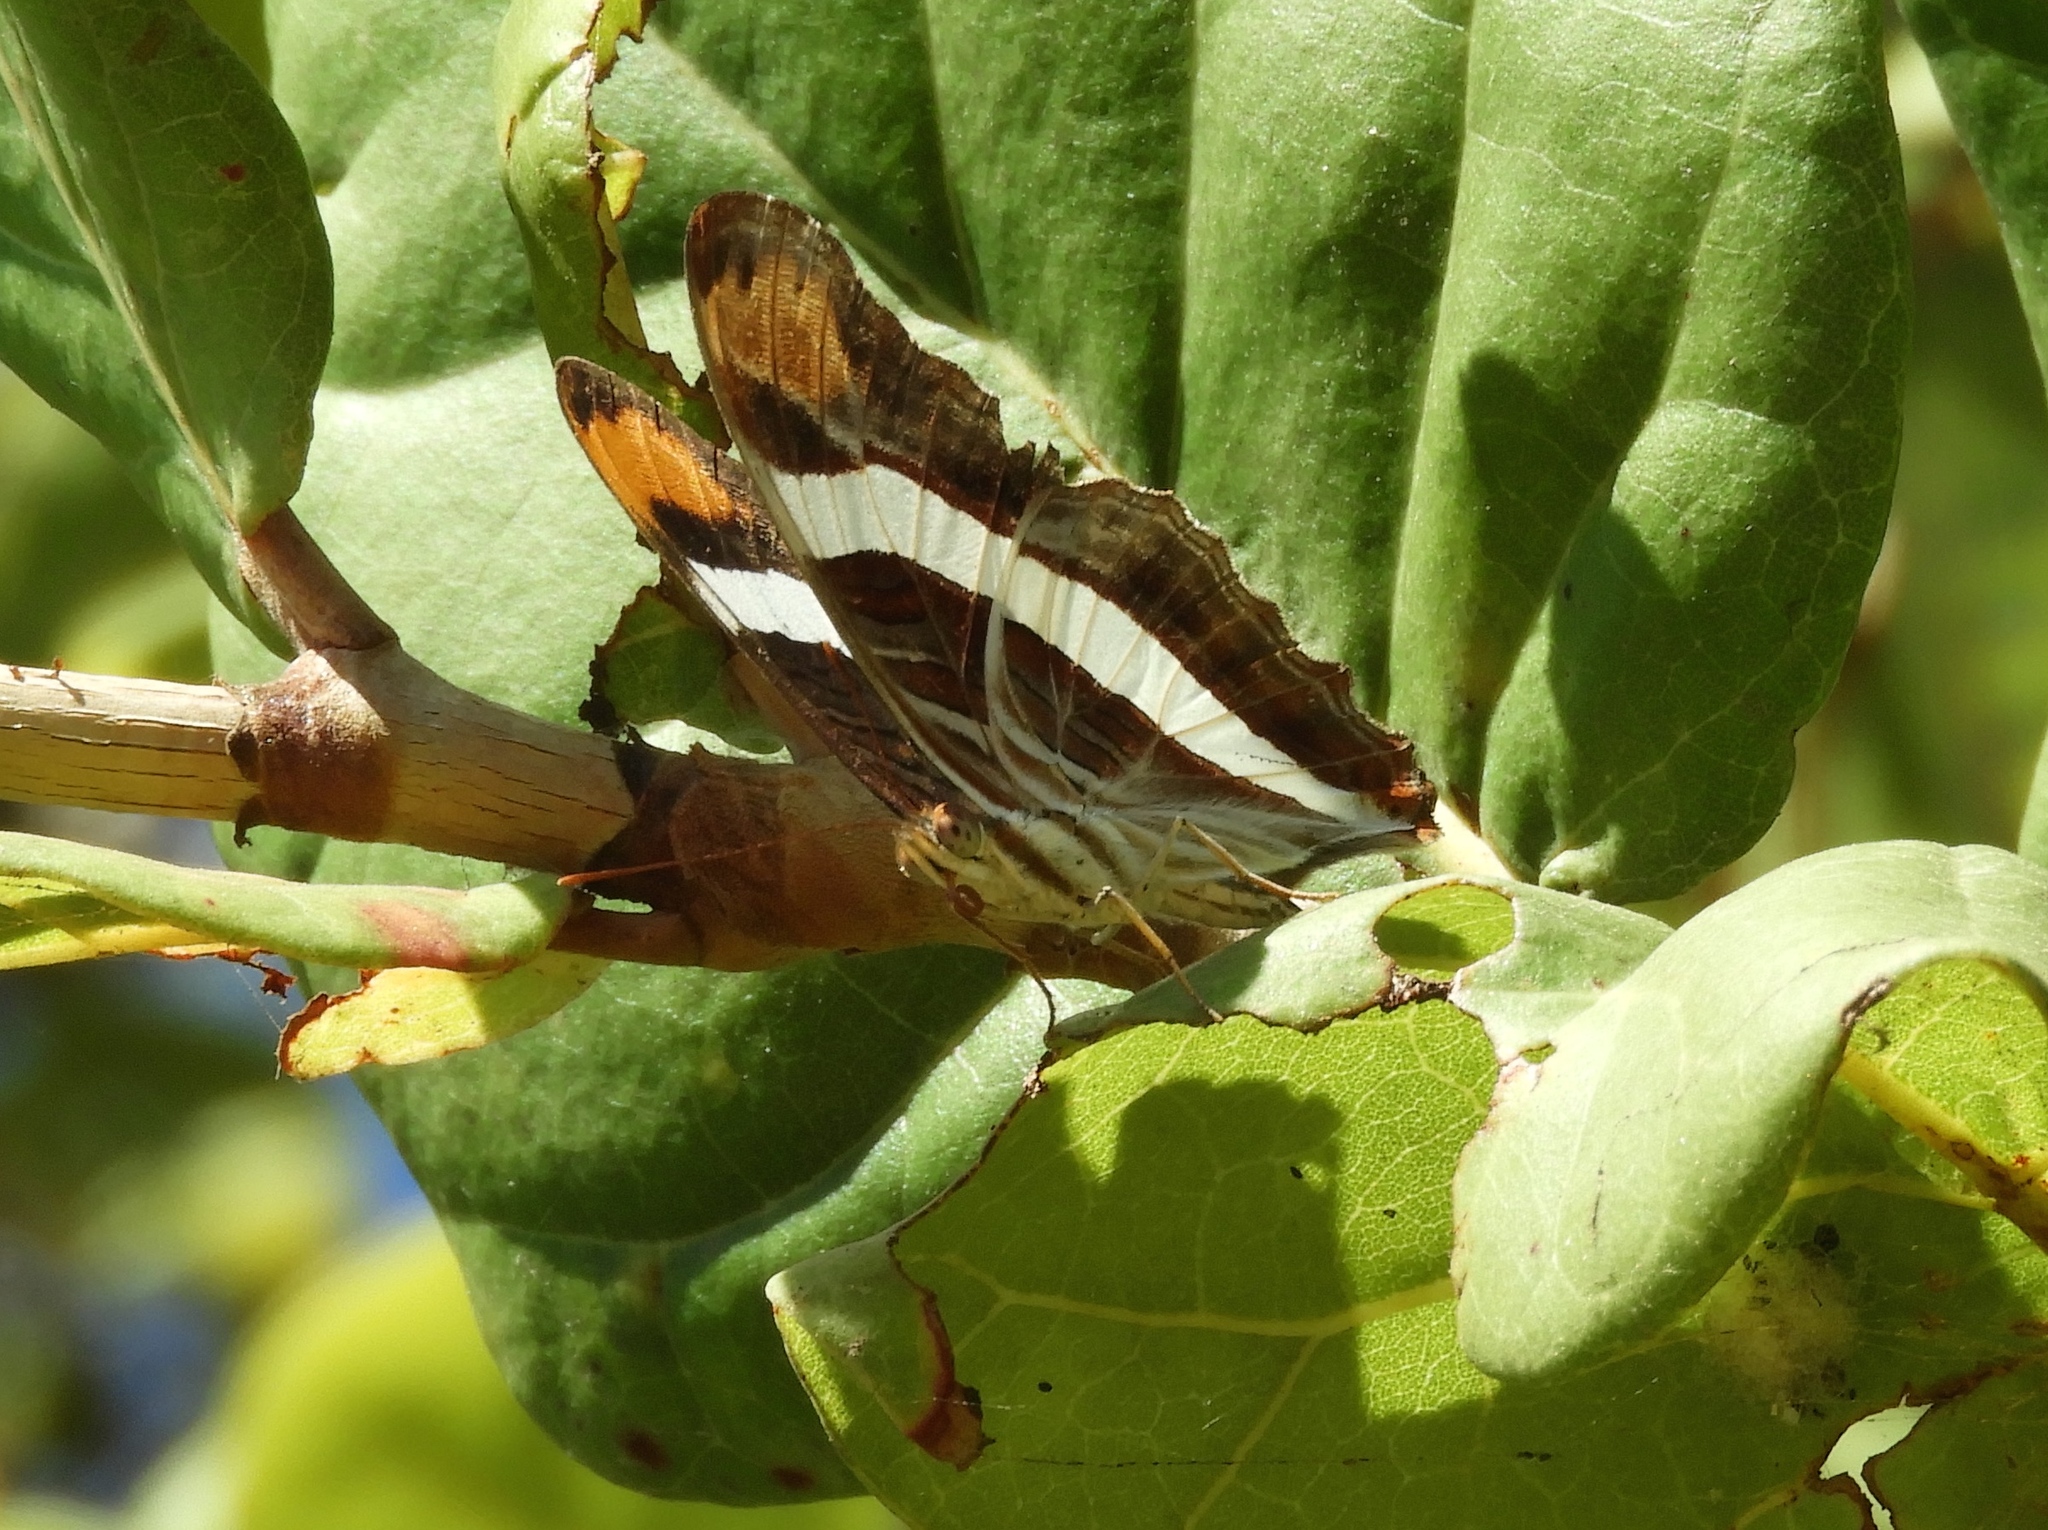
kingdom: Animalia
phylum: Arthropoda
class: Insecta
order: Lepidoptera
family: Nymphalidae
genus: Limenitis
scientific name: Limenitis fessonia
